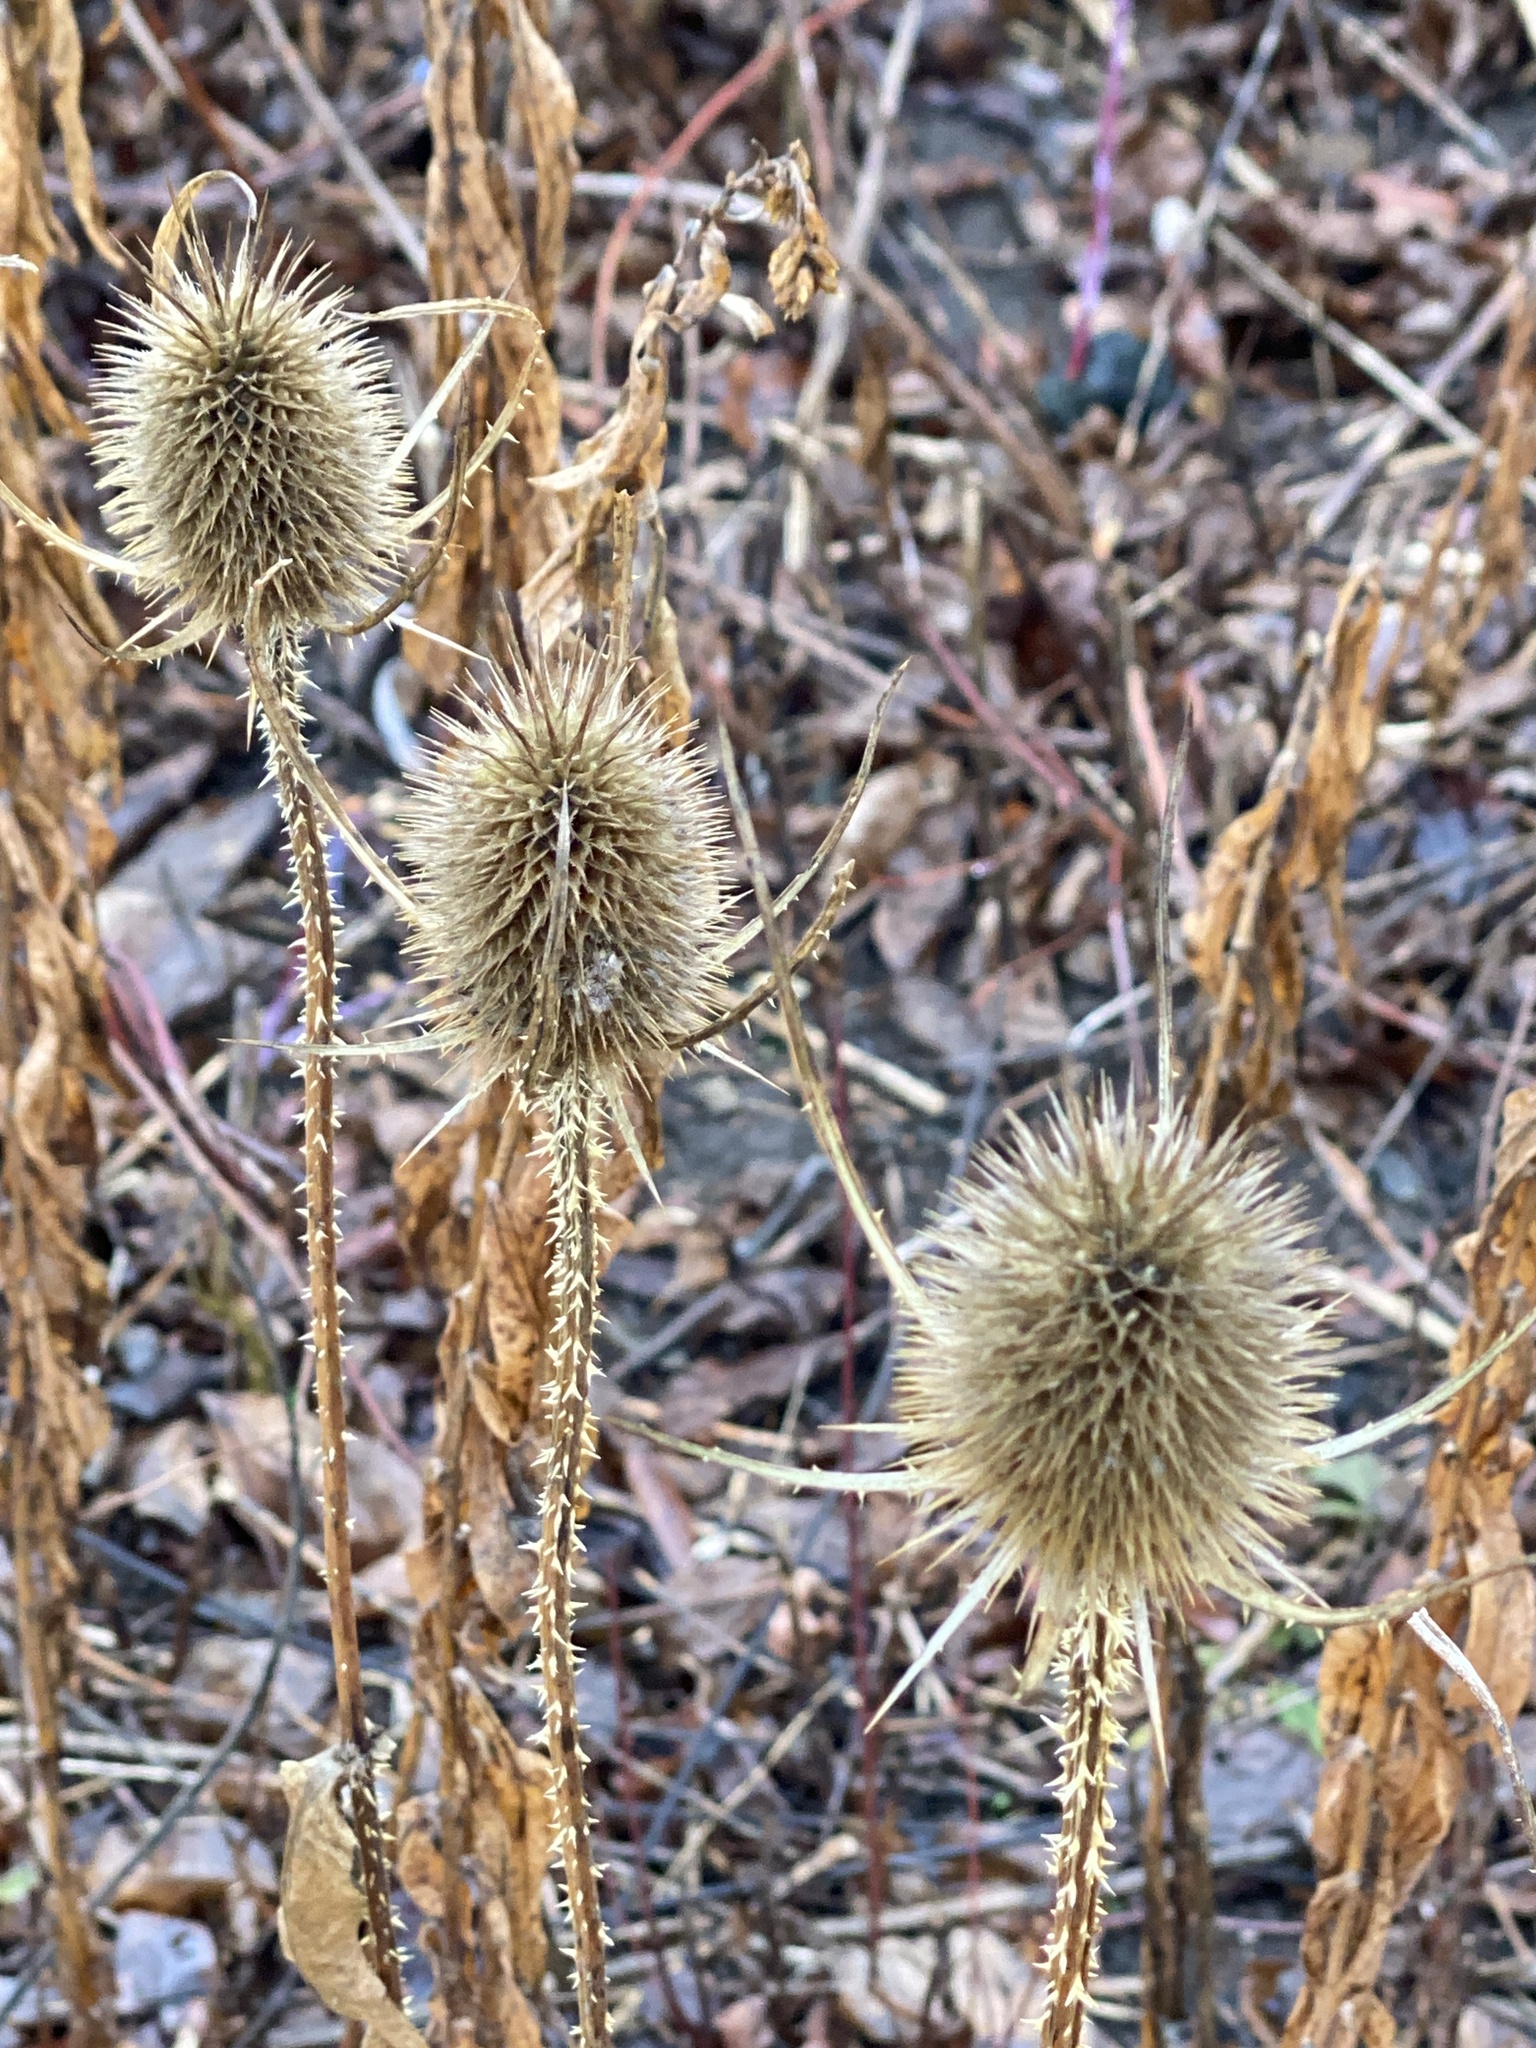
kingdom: Plantae
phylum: Tracheophyta
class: Magnoliopsida
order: Dipsacales
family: Caprifoliaceae
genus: Dipsacus
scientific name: Dipsacus fullonum
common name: Teasel
